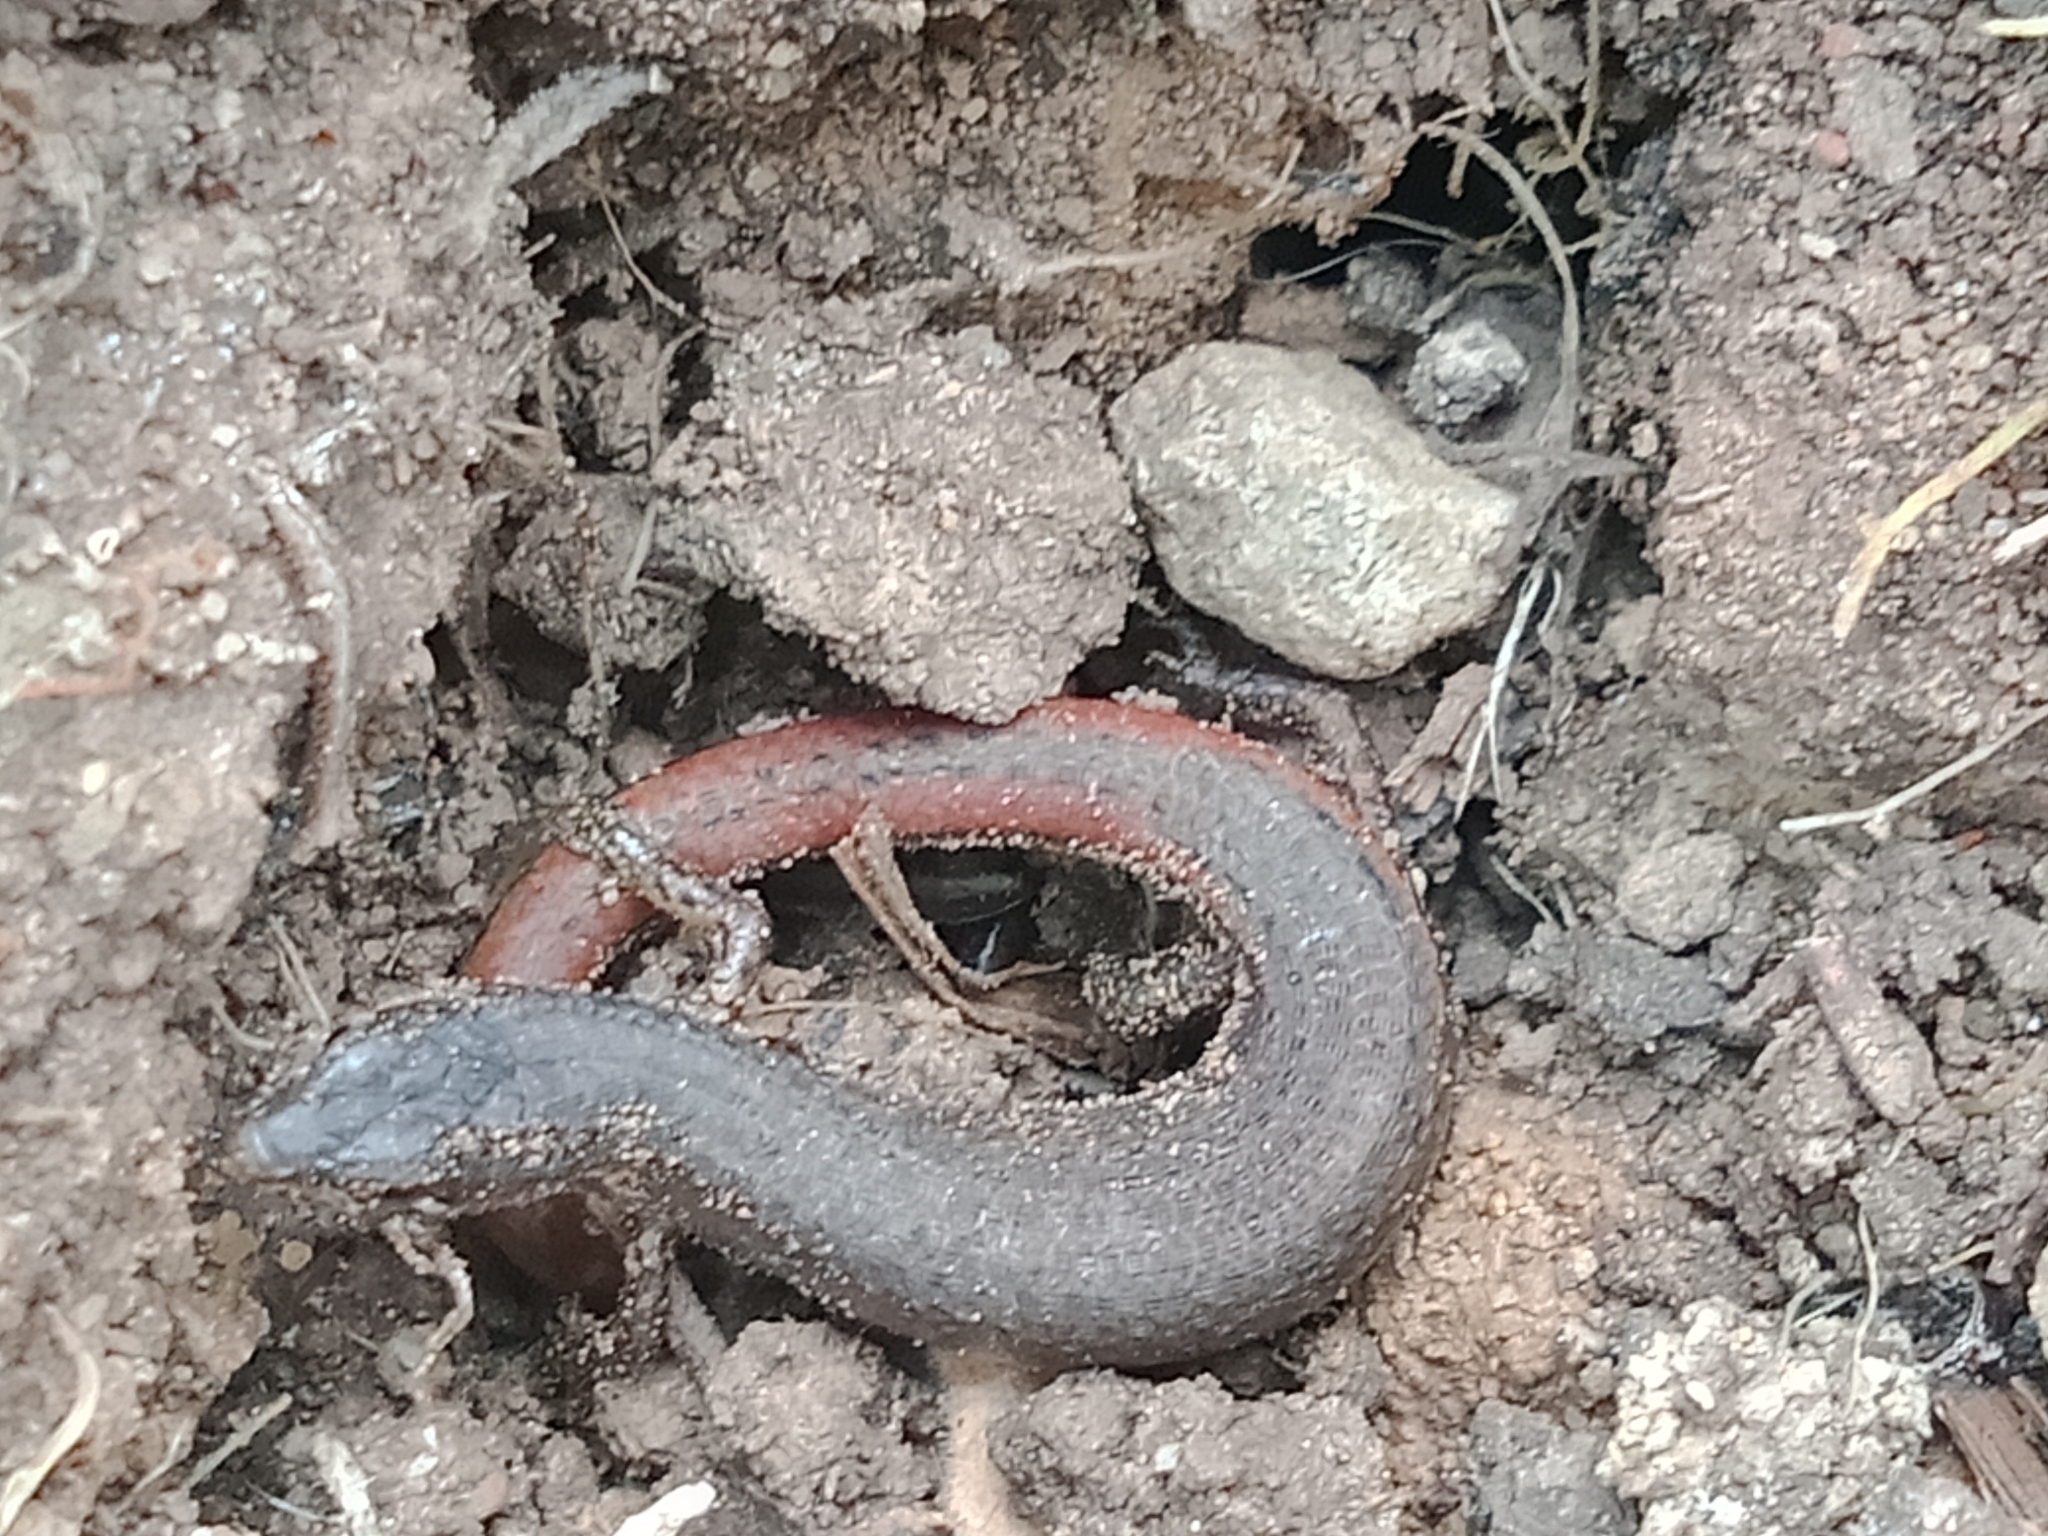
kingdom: Animalia
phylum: Chordata
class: Squamata
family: Scincidae
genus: Saproscincus
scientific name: Saproscincus mustelinus
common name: Southern weasel skink
